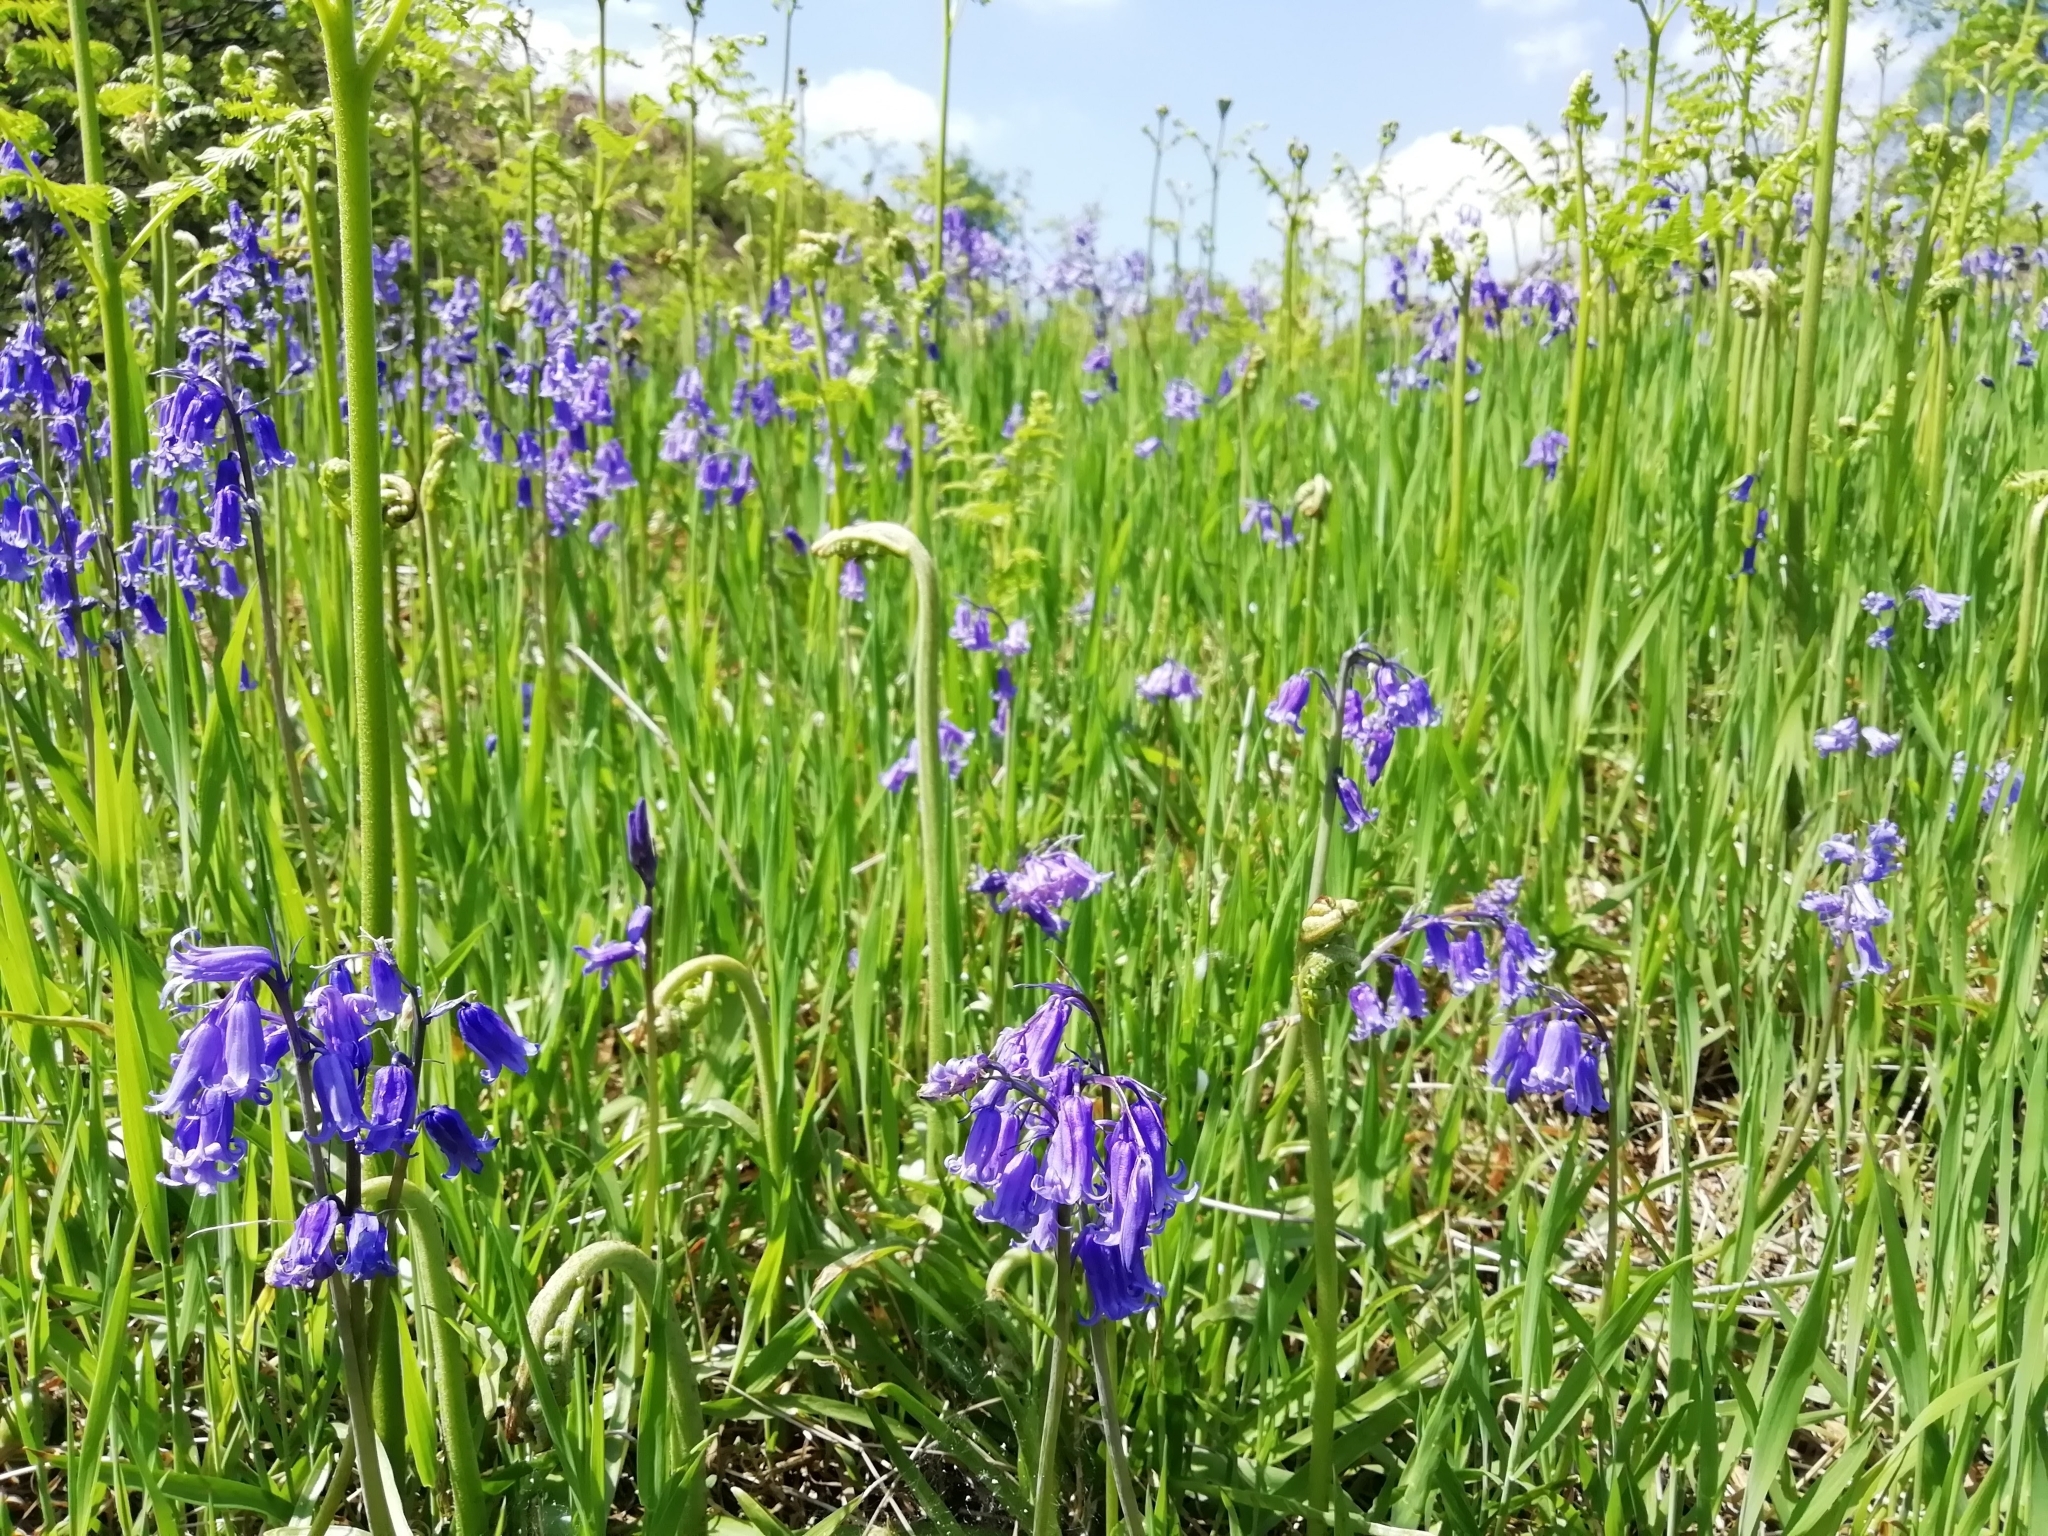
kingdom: Plantae
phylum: Tracheophyta
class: Liliopsida
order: Asparagales
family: Asparagaceae
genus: Hyacinthoides
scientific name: Hyacinthoides non-scripta
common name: Bluebell
